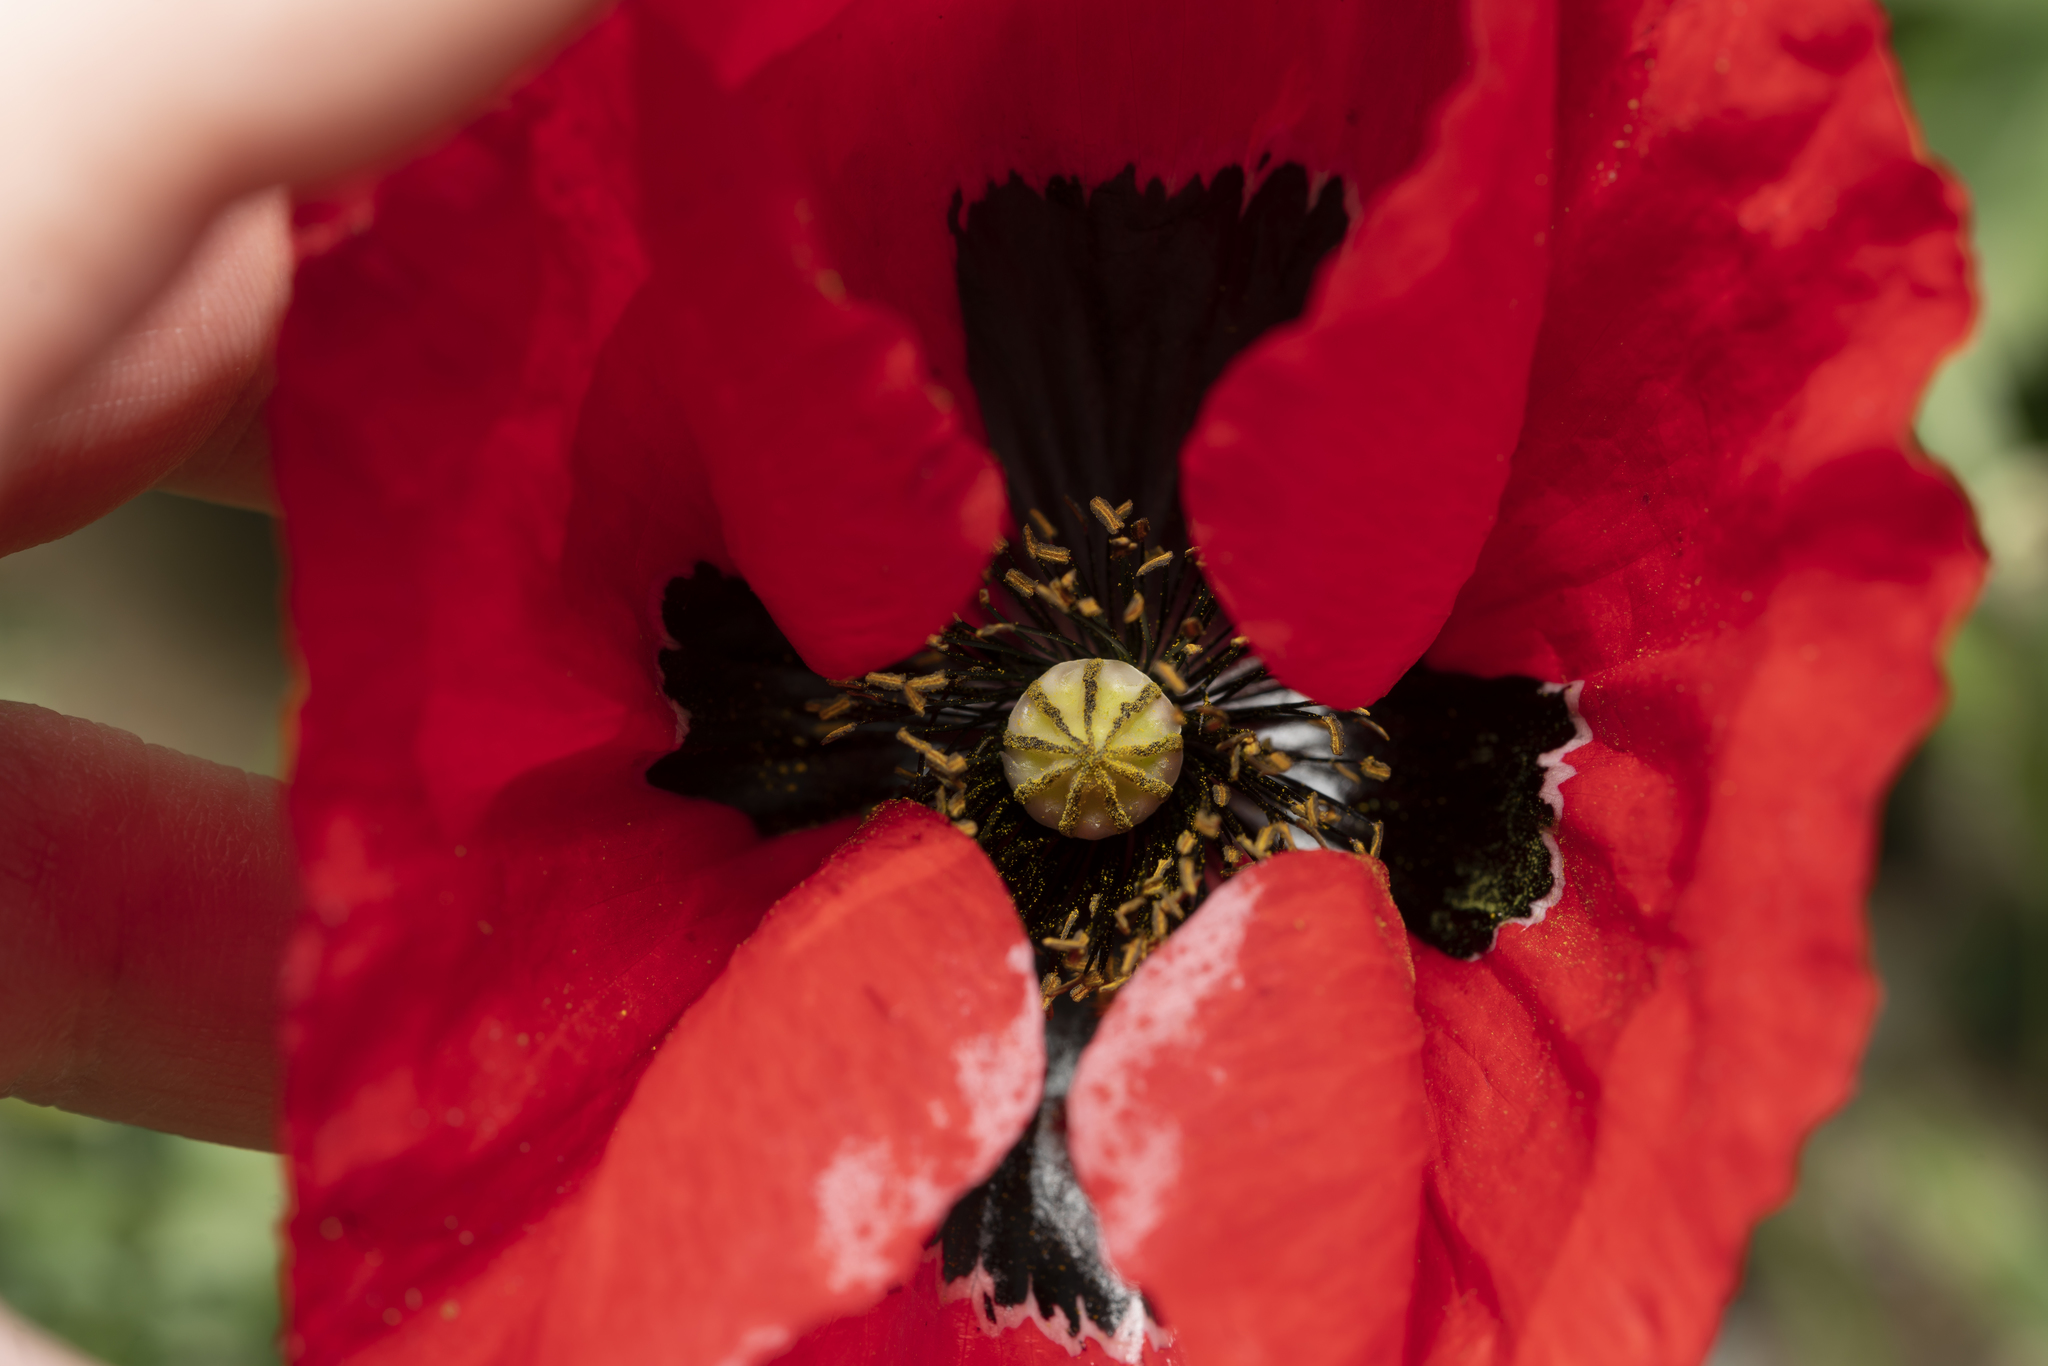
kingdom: Plantae
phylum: Tracheophyta
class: Magnoliopsida
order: Ranunculales
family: Papaveraceae
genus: Papaver
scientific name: Papaver rhoeas
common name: Corn poppy
